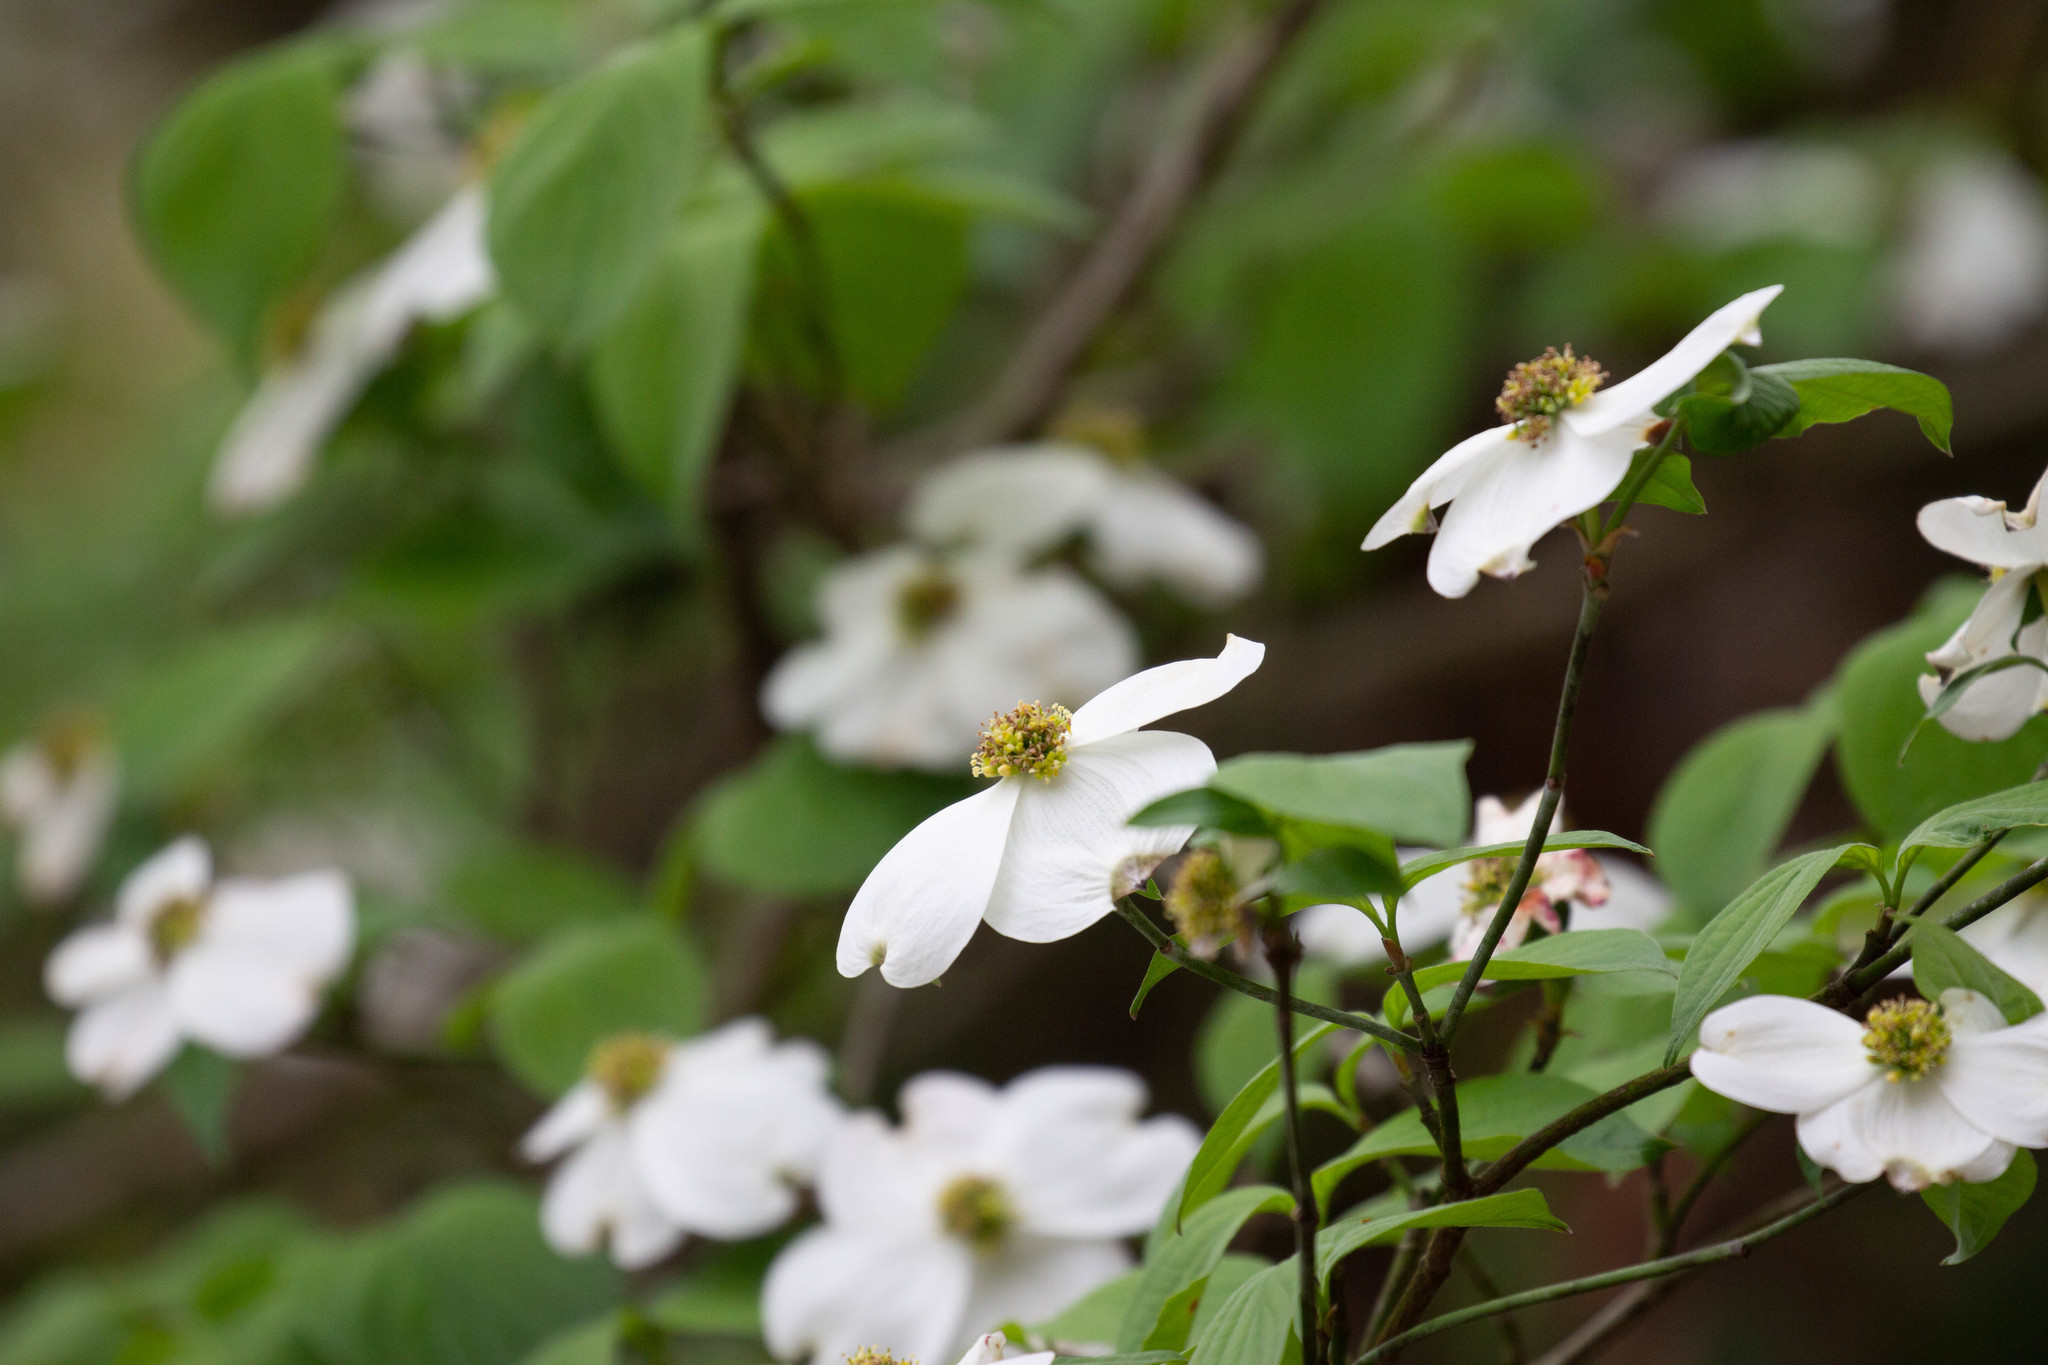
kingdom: Plantae
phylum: Tracheophyta
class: Magnoliopsida
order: Cornales
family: Cornaceae
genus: Cornus
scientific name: Cornus florida
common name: Flowering dogwood
